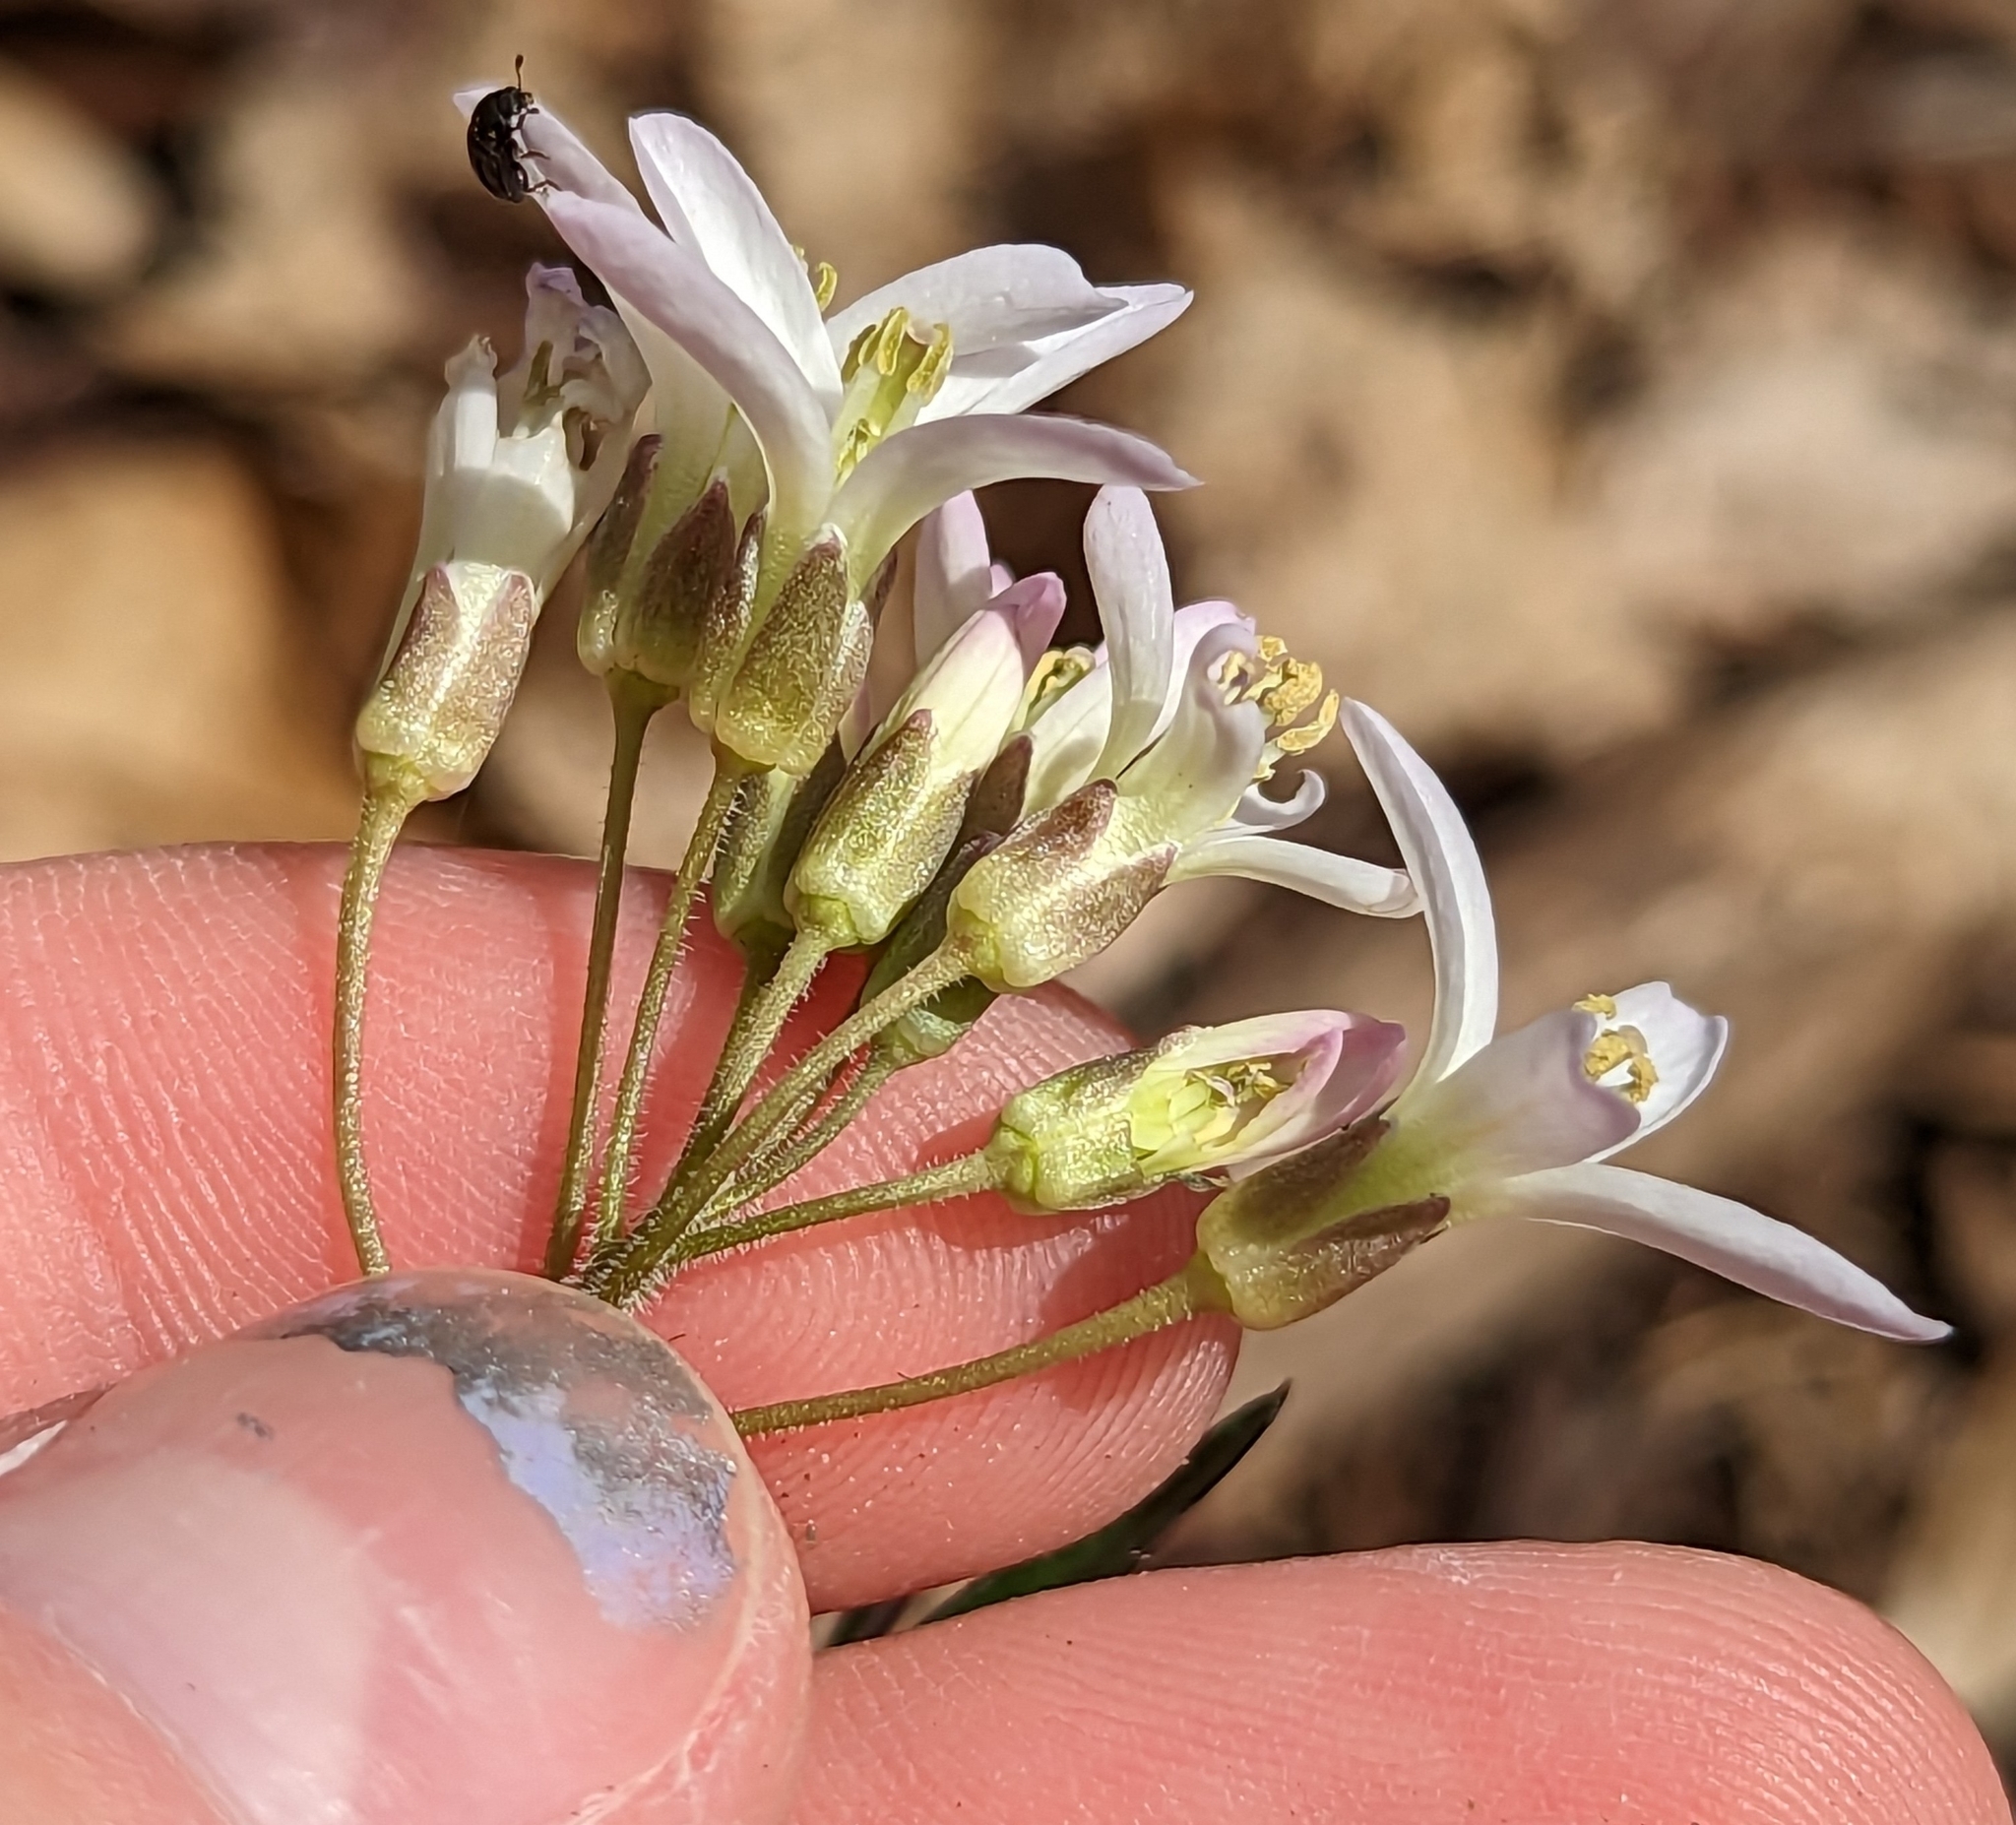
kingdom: Plantae
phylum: Tracheophyta
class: Magnoliopsida
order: Brassicales
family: Brassicaceae
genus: Cardamine
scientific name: Cardamine concatenata
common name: Cut-leaf toothcup
